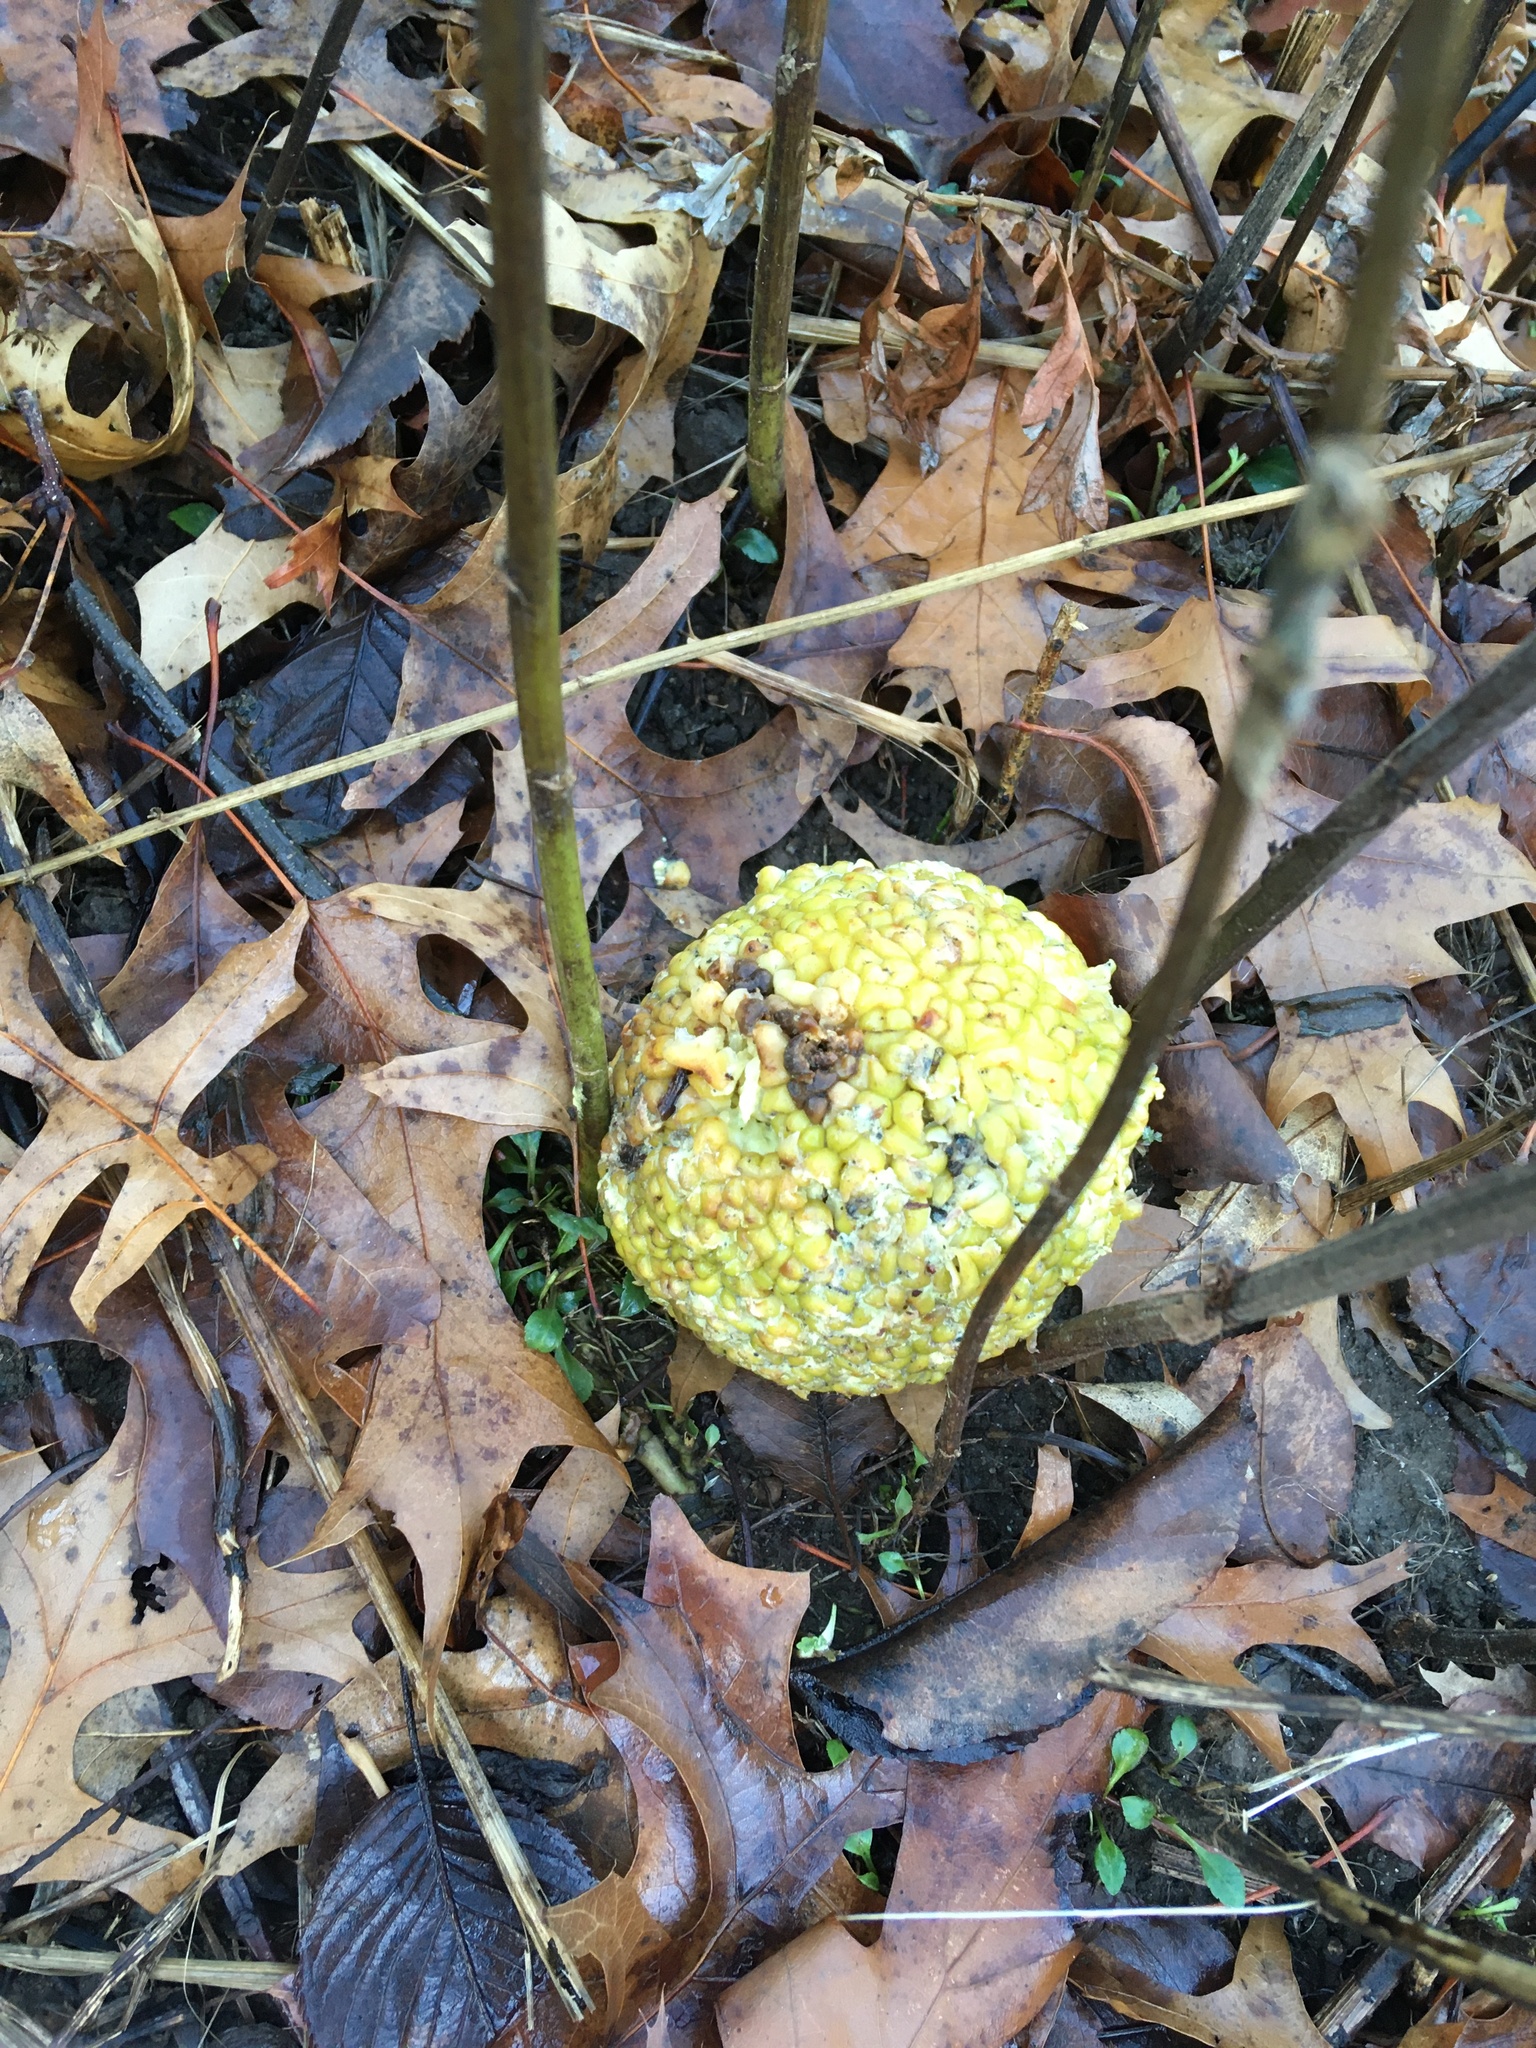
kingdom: Plantae
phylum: Tracheophyta
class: Magnoliopsida
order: Rosales
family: Moraceae
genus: Maclura
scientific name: Maclura pomifera
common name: Osage-orange
